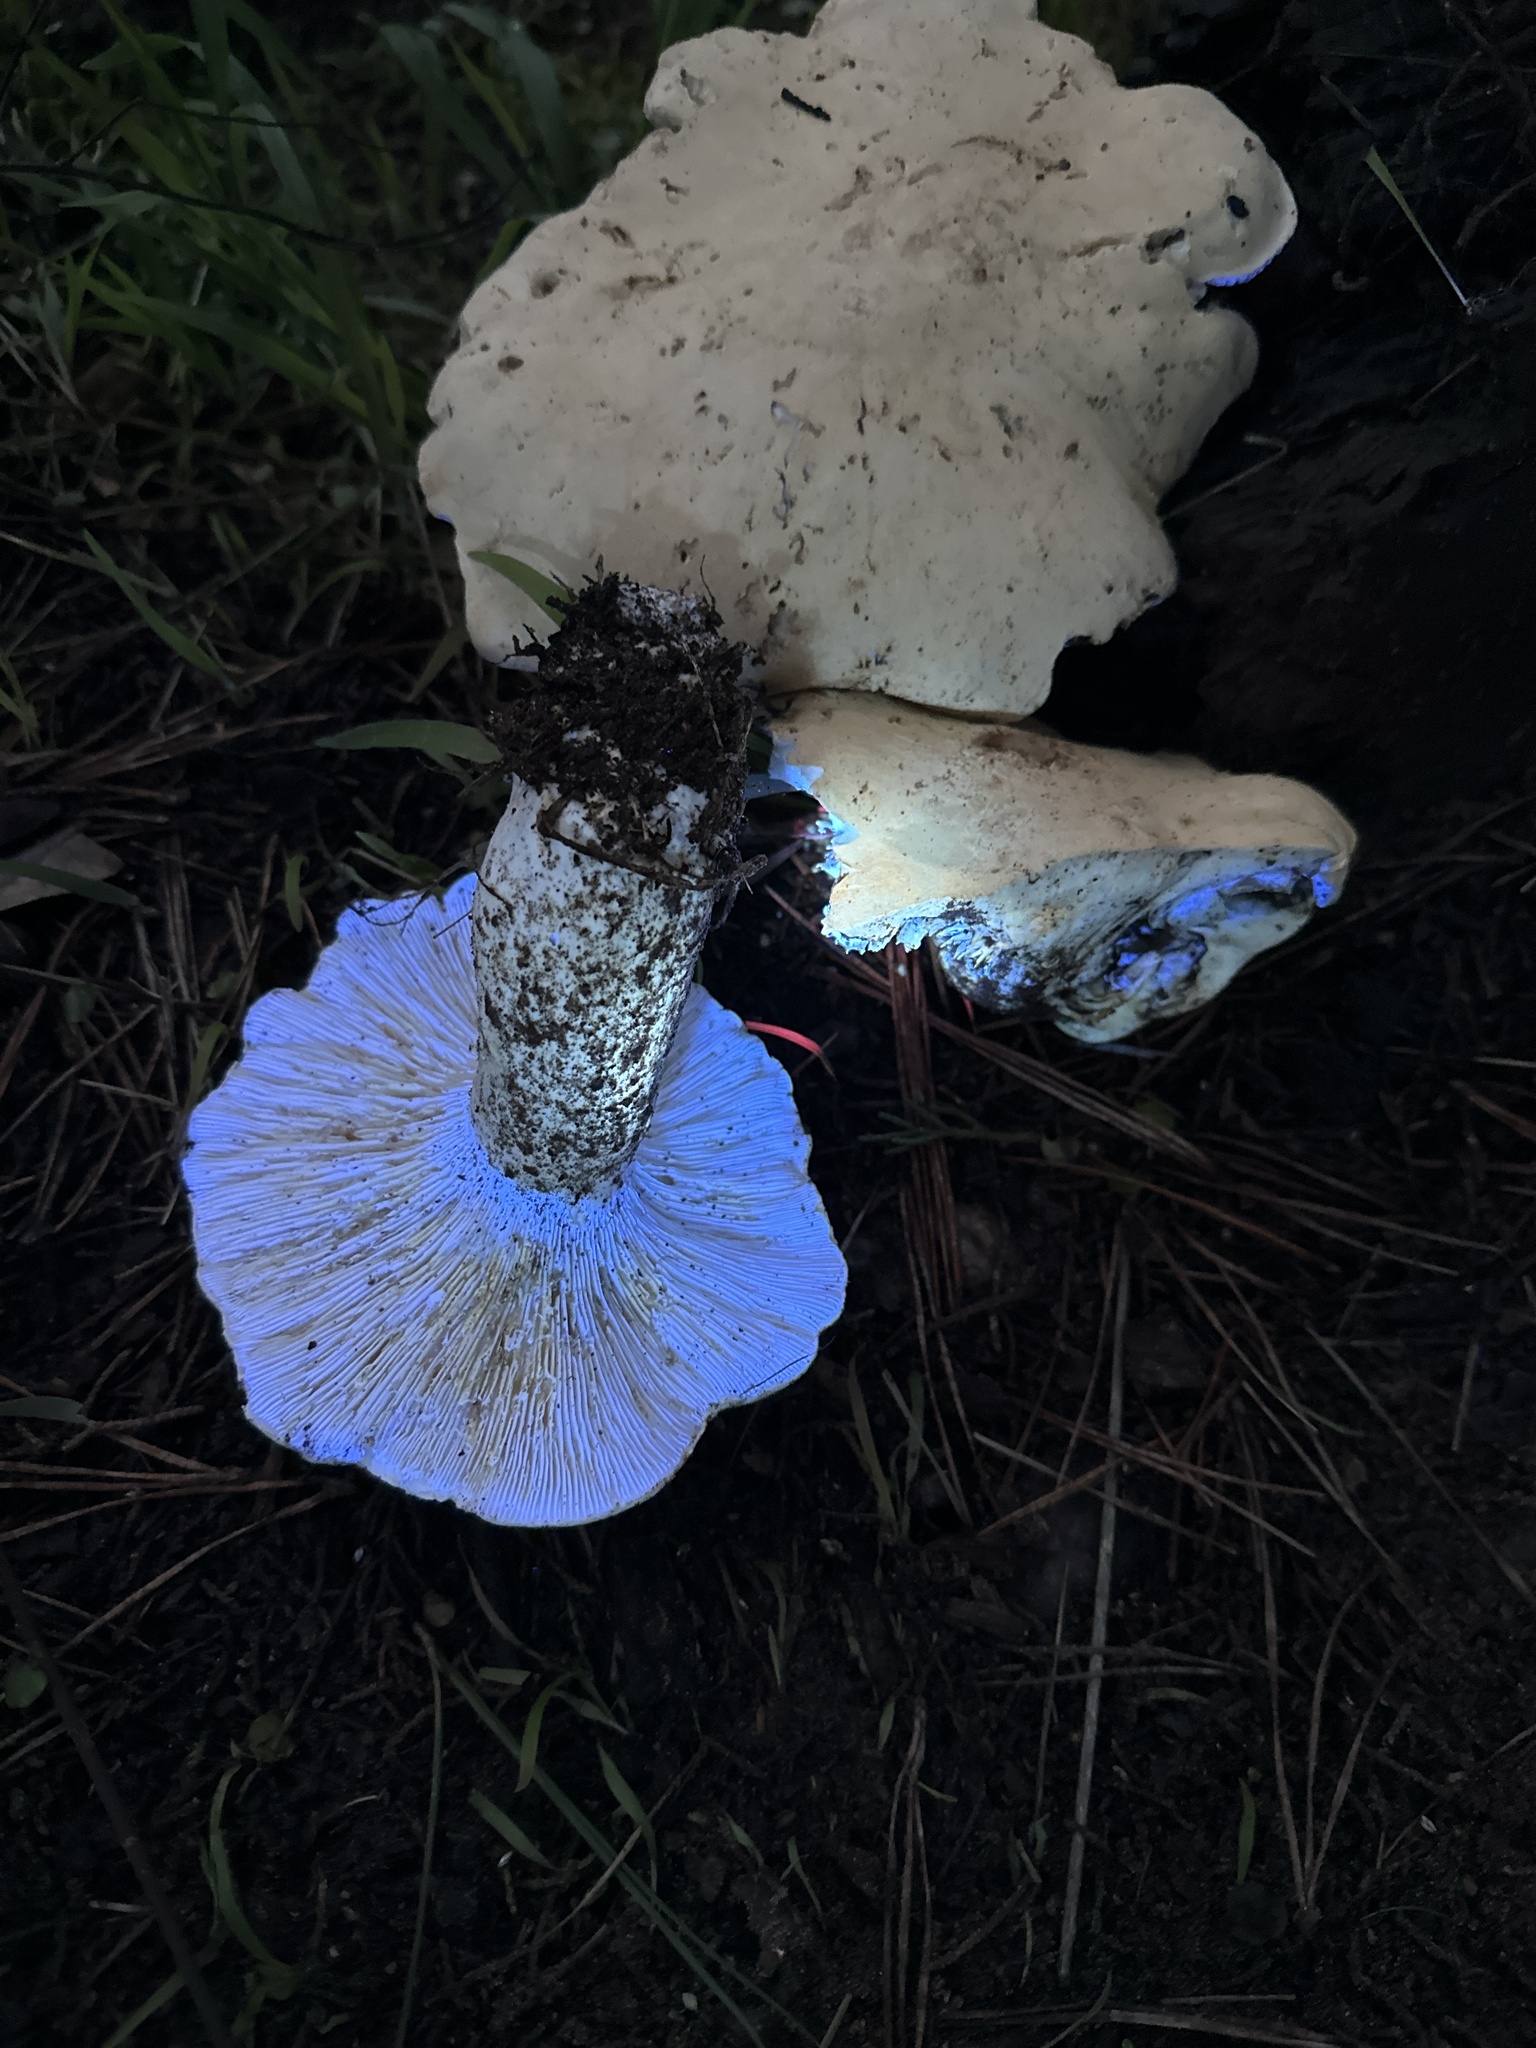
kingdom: Fungi
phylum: Basidiomycota
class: Agaricomycetes
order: Agaricales
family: Tricholomataceae
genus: Leucopaxillus
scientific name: Leucopaxillus albissimus
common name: Large white leucopax
